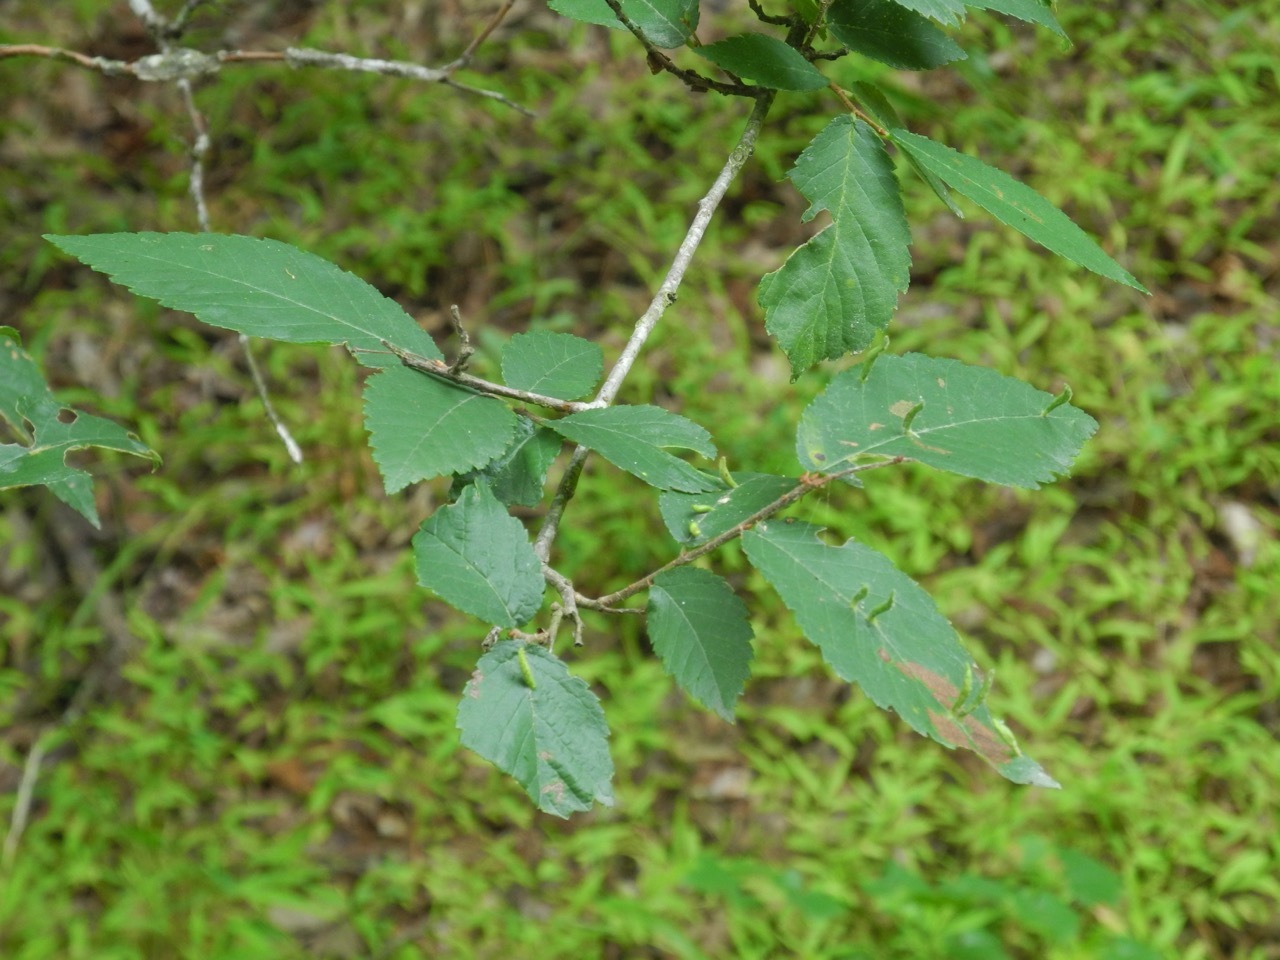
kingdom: Plantae
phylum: Tracheophyta
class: Magnoliopsida
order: Rosales
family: Ulmaceae
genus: Ulmus
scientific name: Ulmus alata
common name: Winged elm
